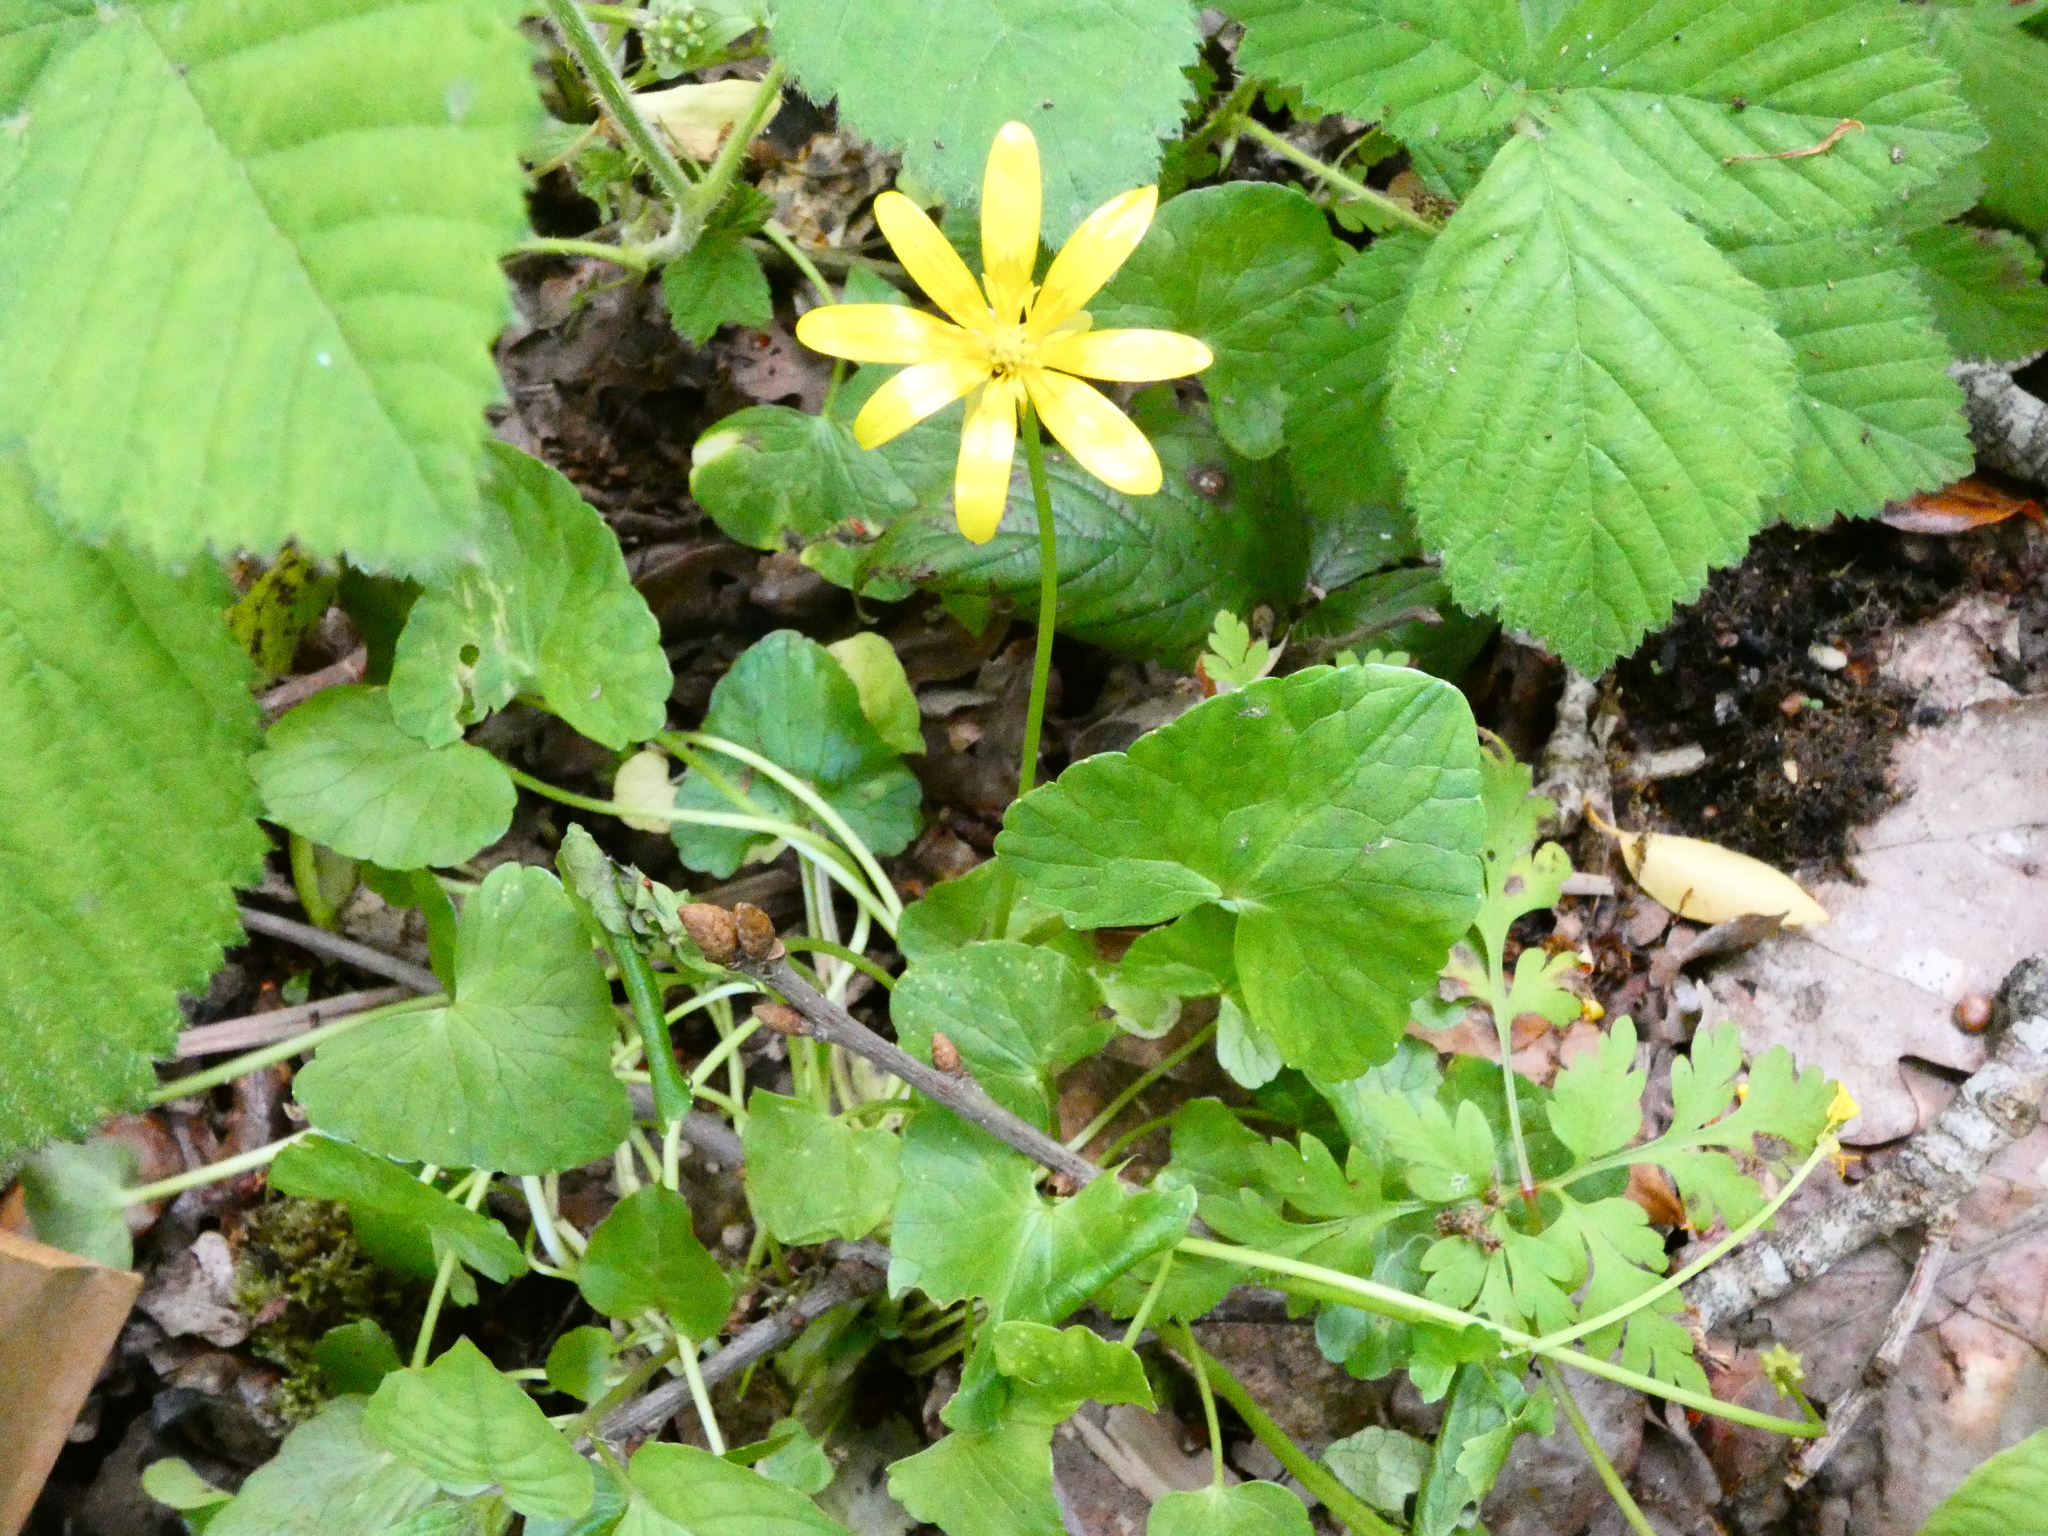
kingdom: Plantae
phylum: Tracheophyta
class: Magnoliopsida
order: Ranunculales
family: Ranunculaceae
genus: Ficaria
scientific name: Ficaria verna
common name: Lesser celandine
